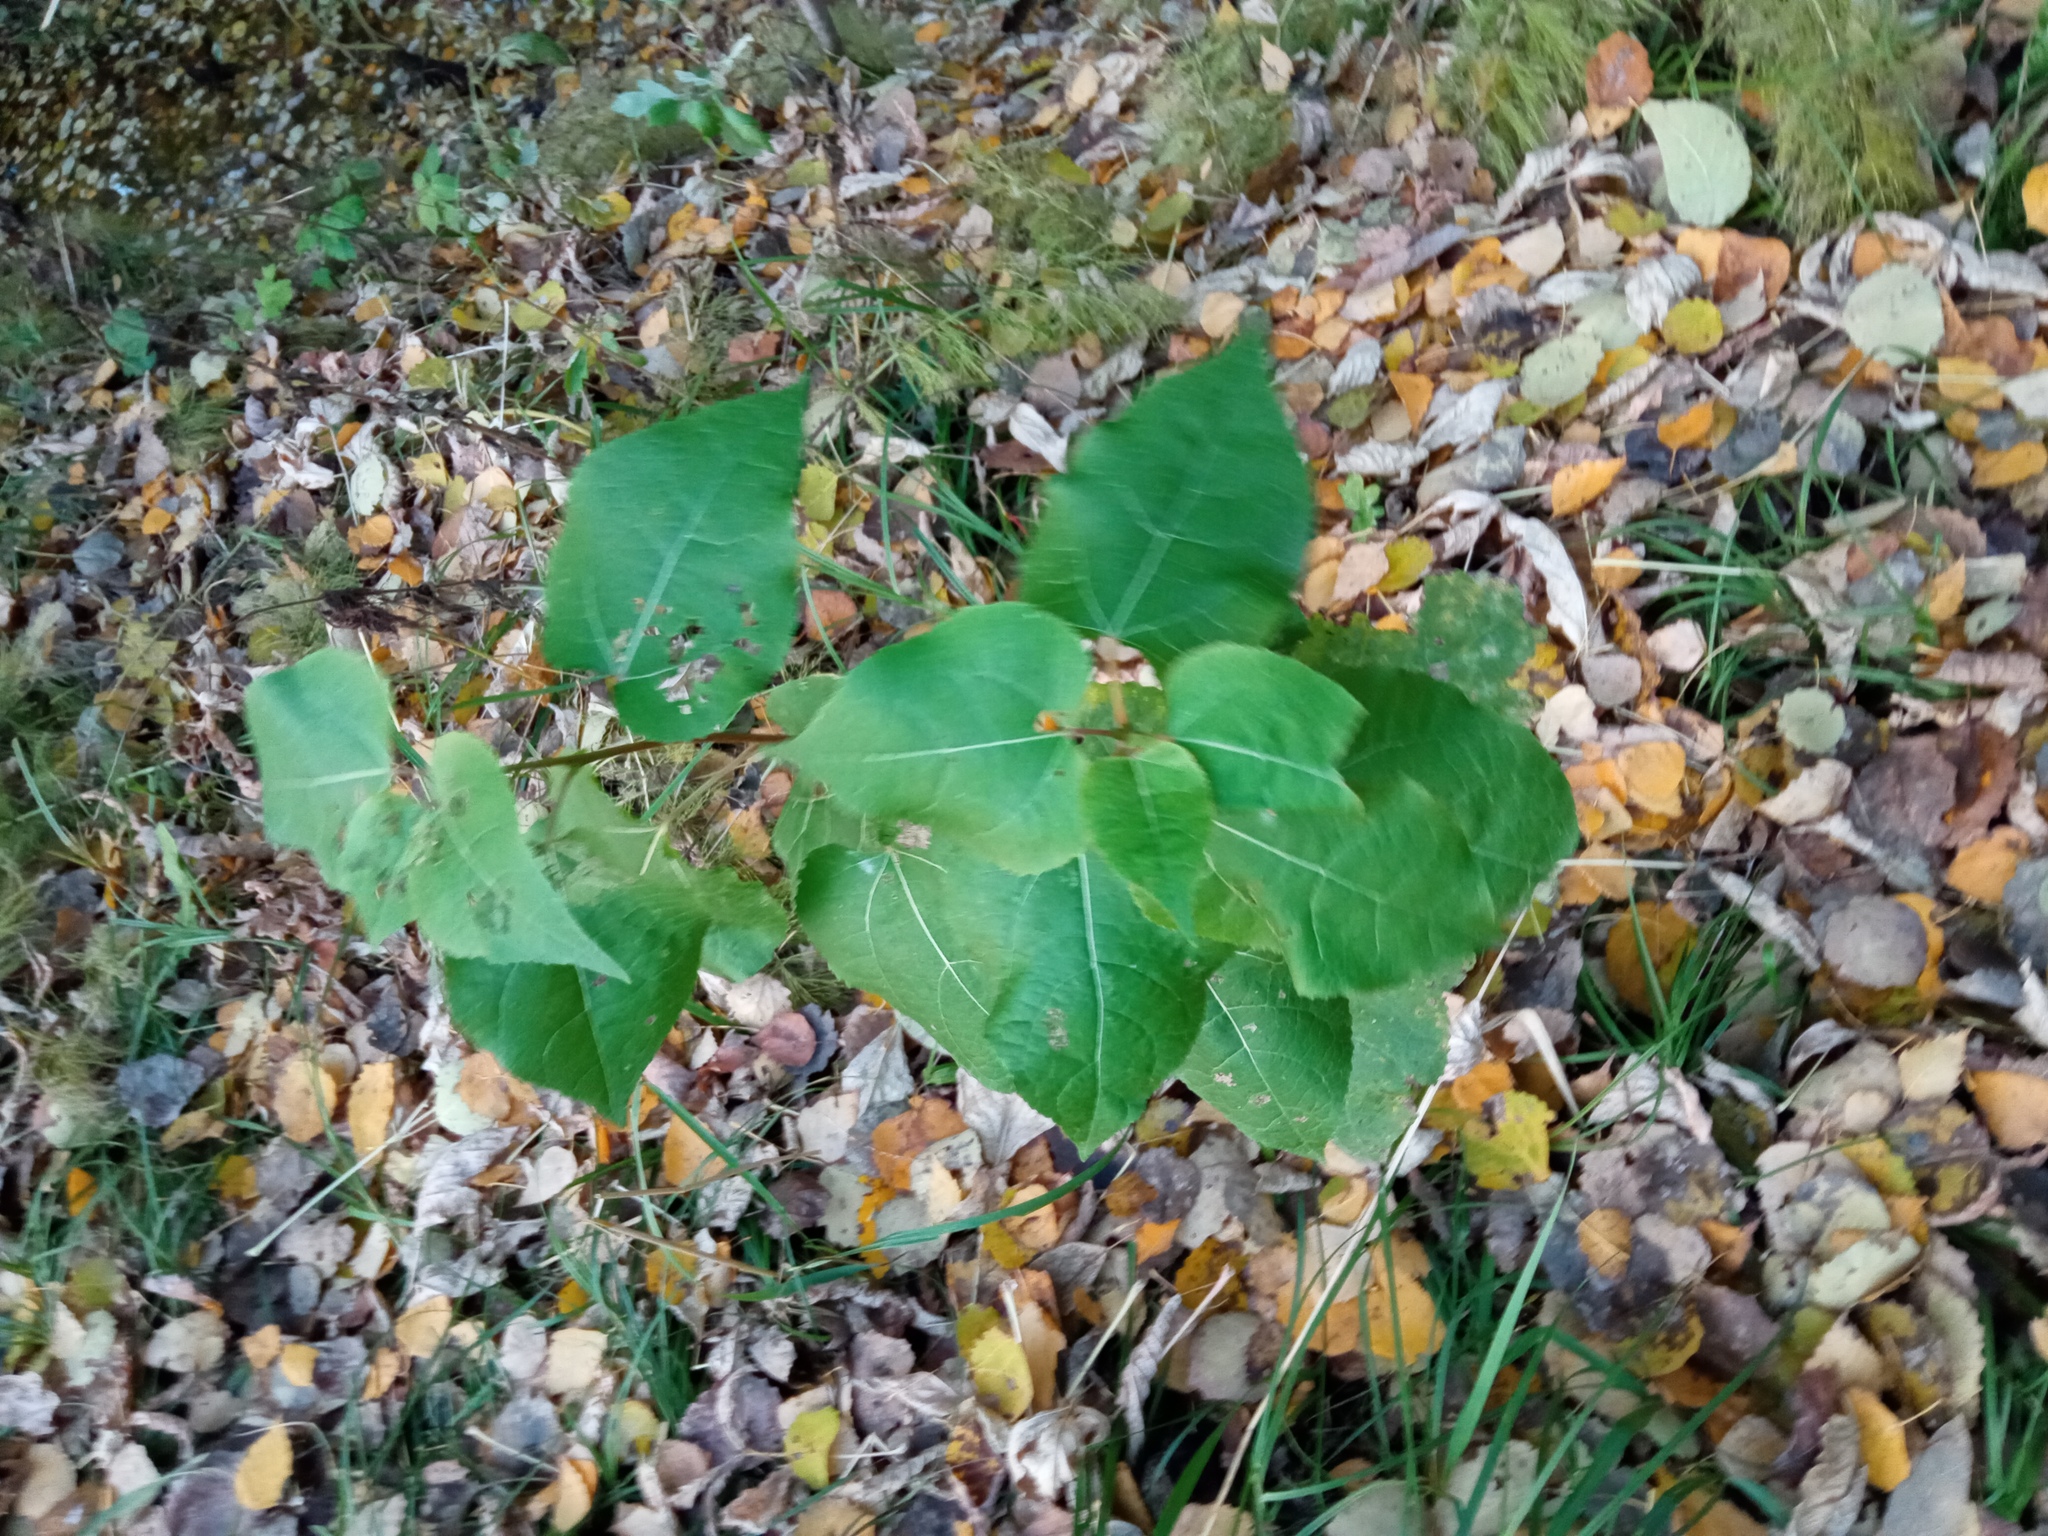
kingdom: Plantae
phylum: Tracheophyta
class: Magnoliopsida
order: Malpighiales
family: Salicaceae
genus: Populus
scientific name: Populus tremula
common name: European aspen
